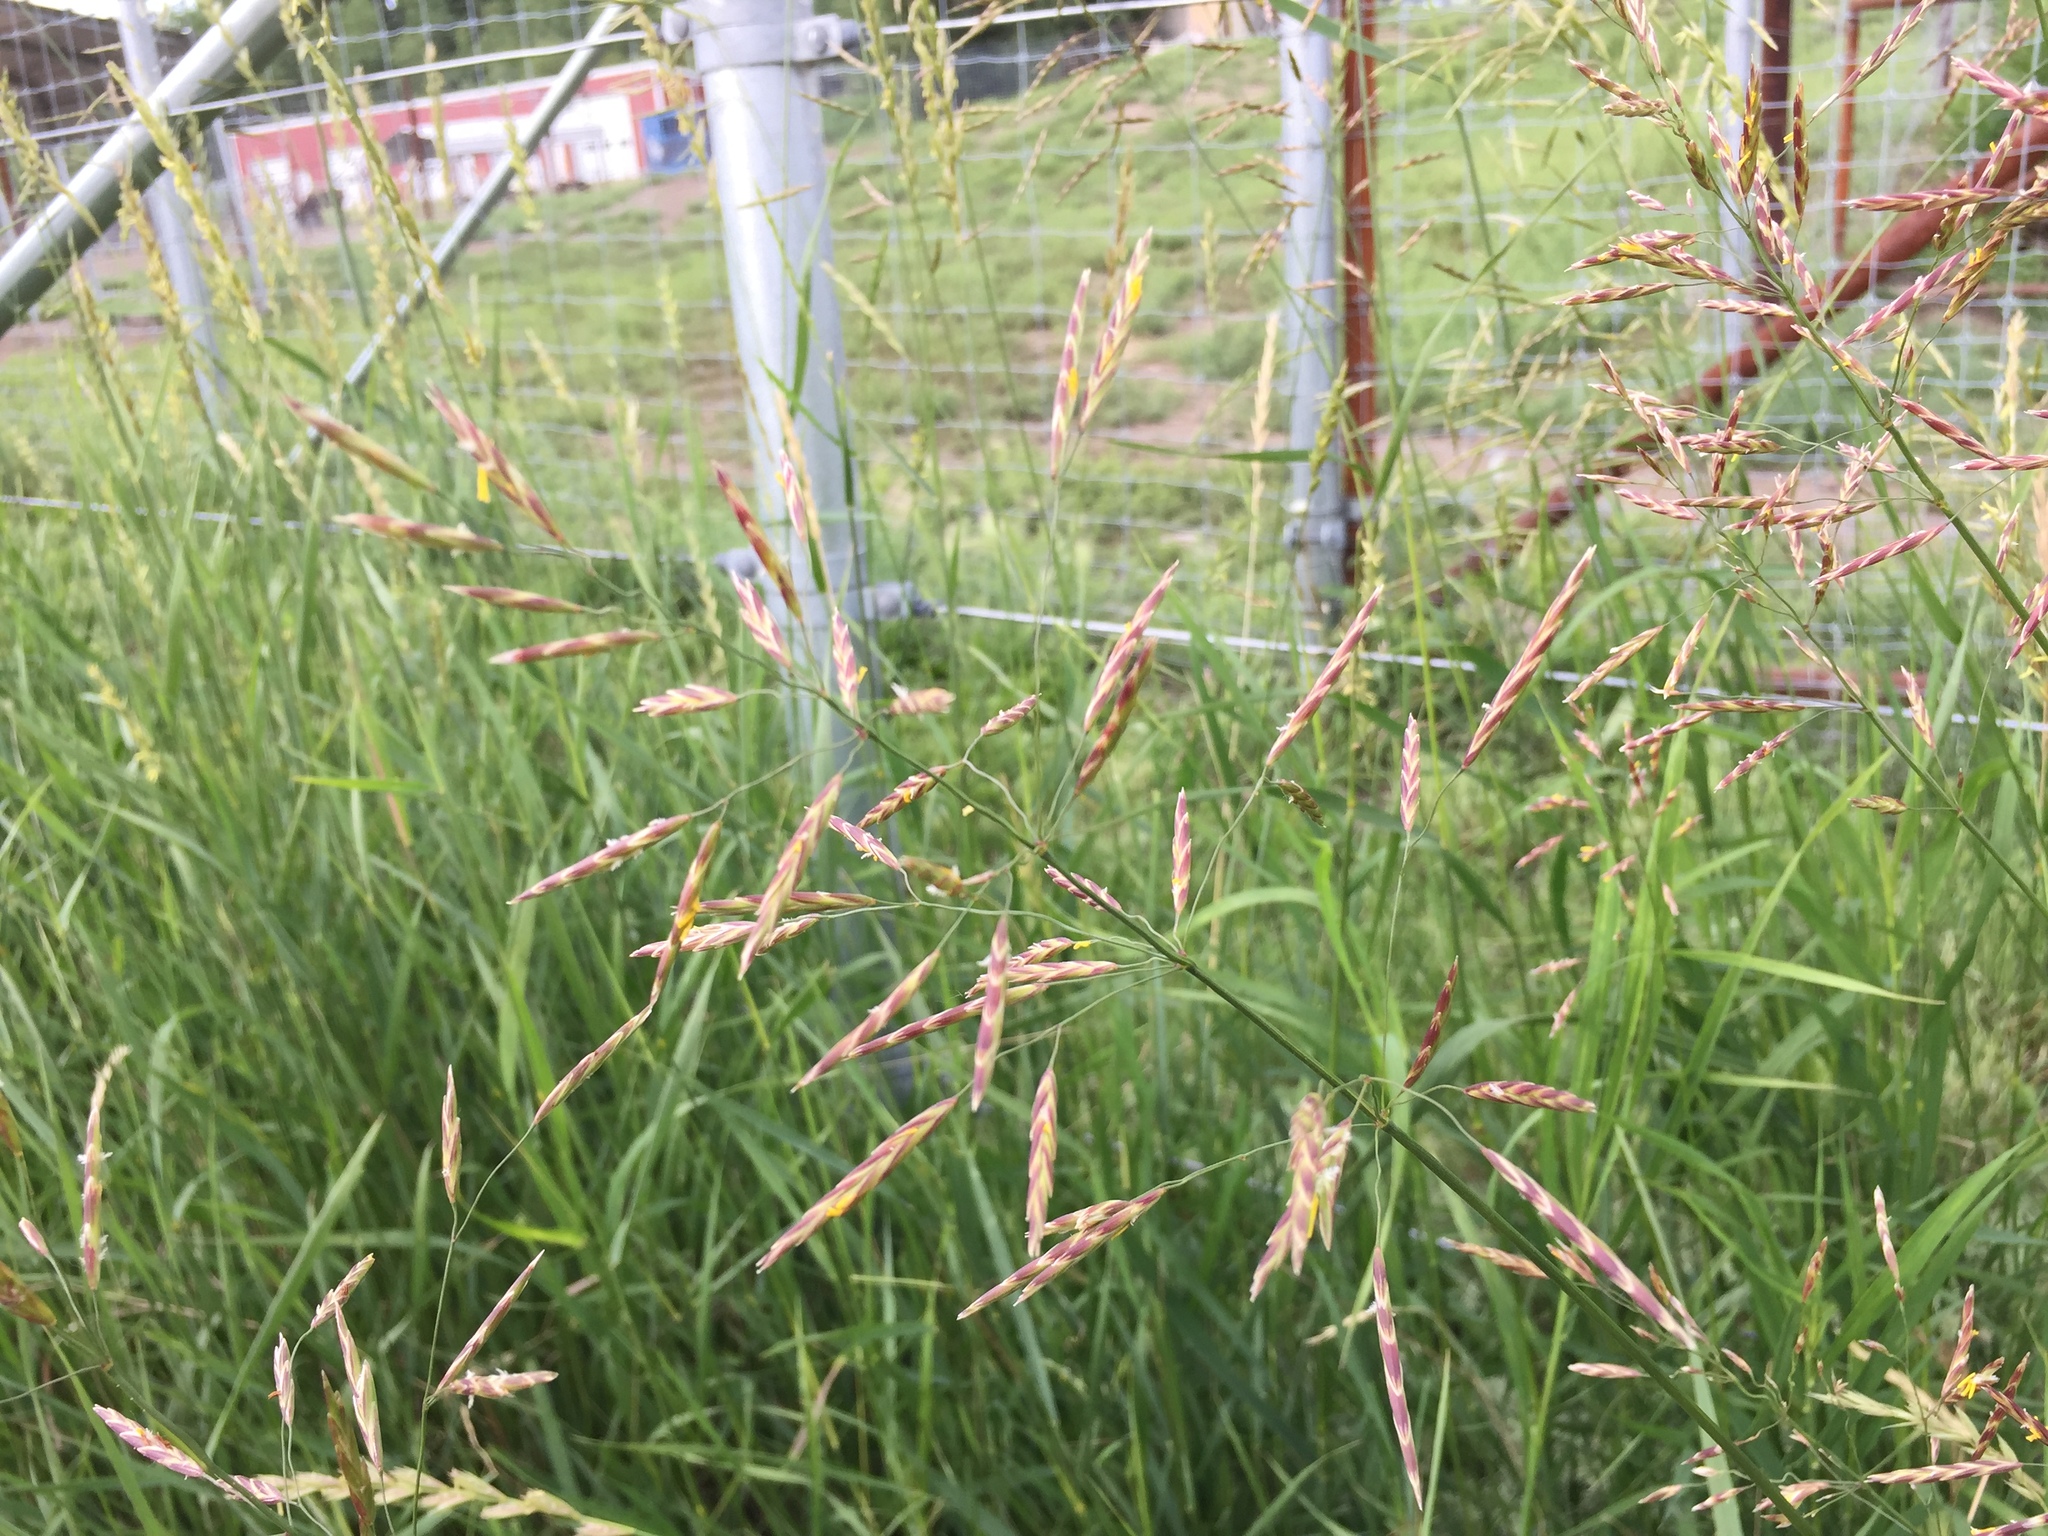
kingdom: Plantae
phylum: Tracheophyta
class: Liliopsida
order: Poales
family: Poaceae
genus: Bromus
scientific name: Bromus inermis
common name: Smooth brome
